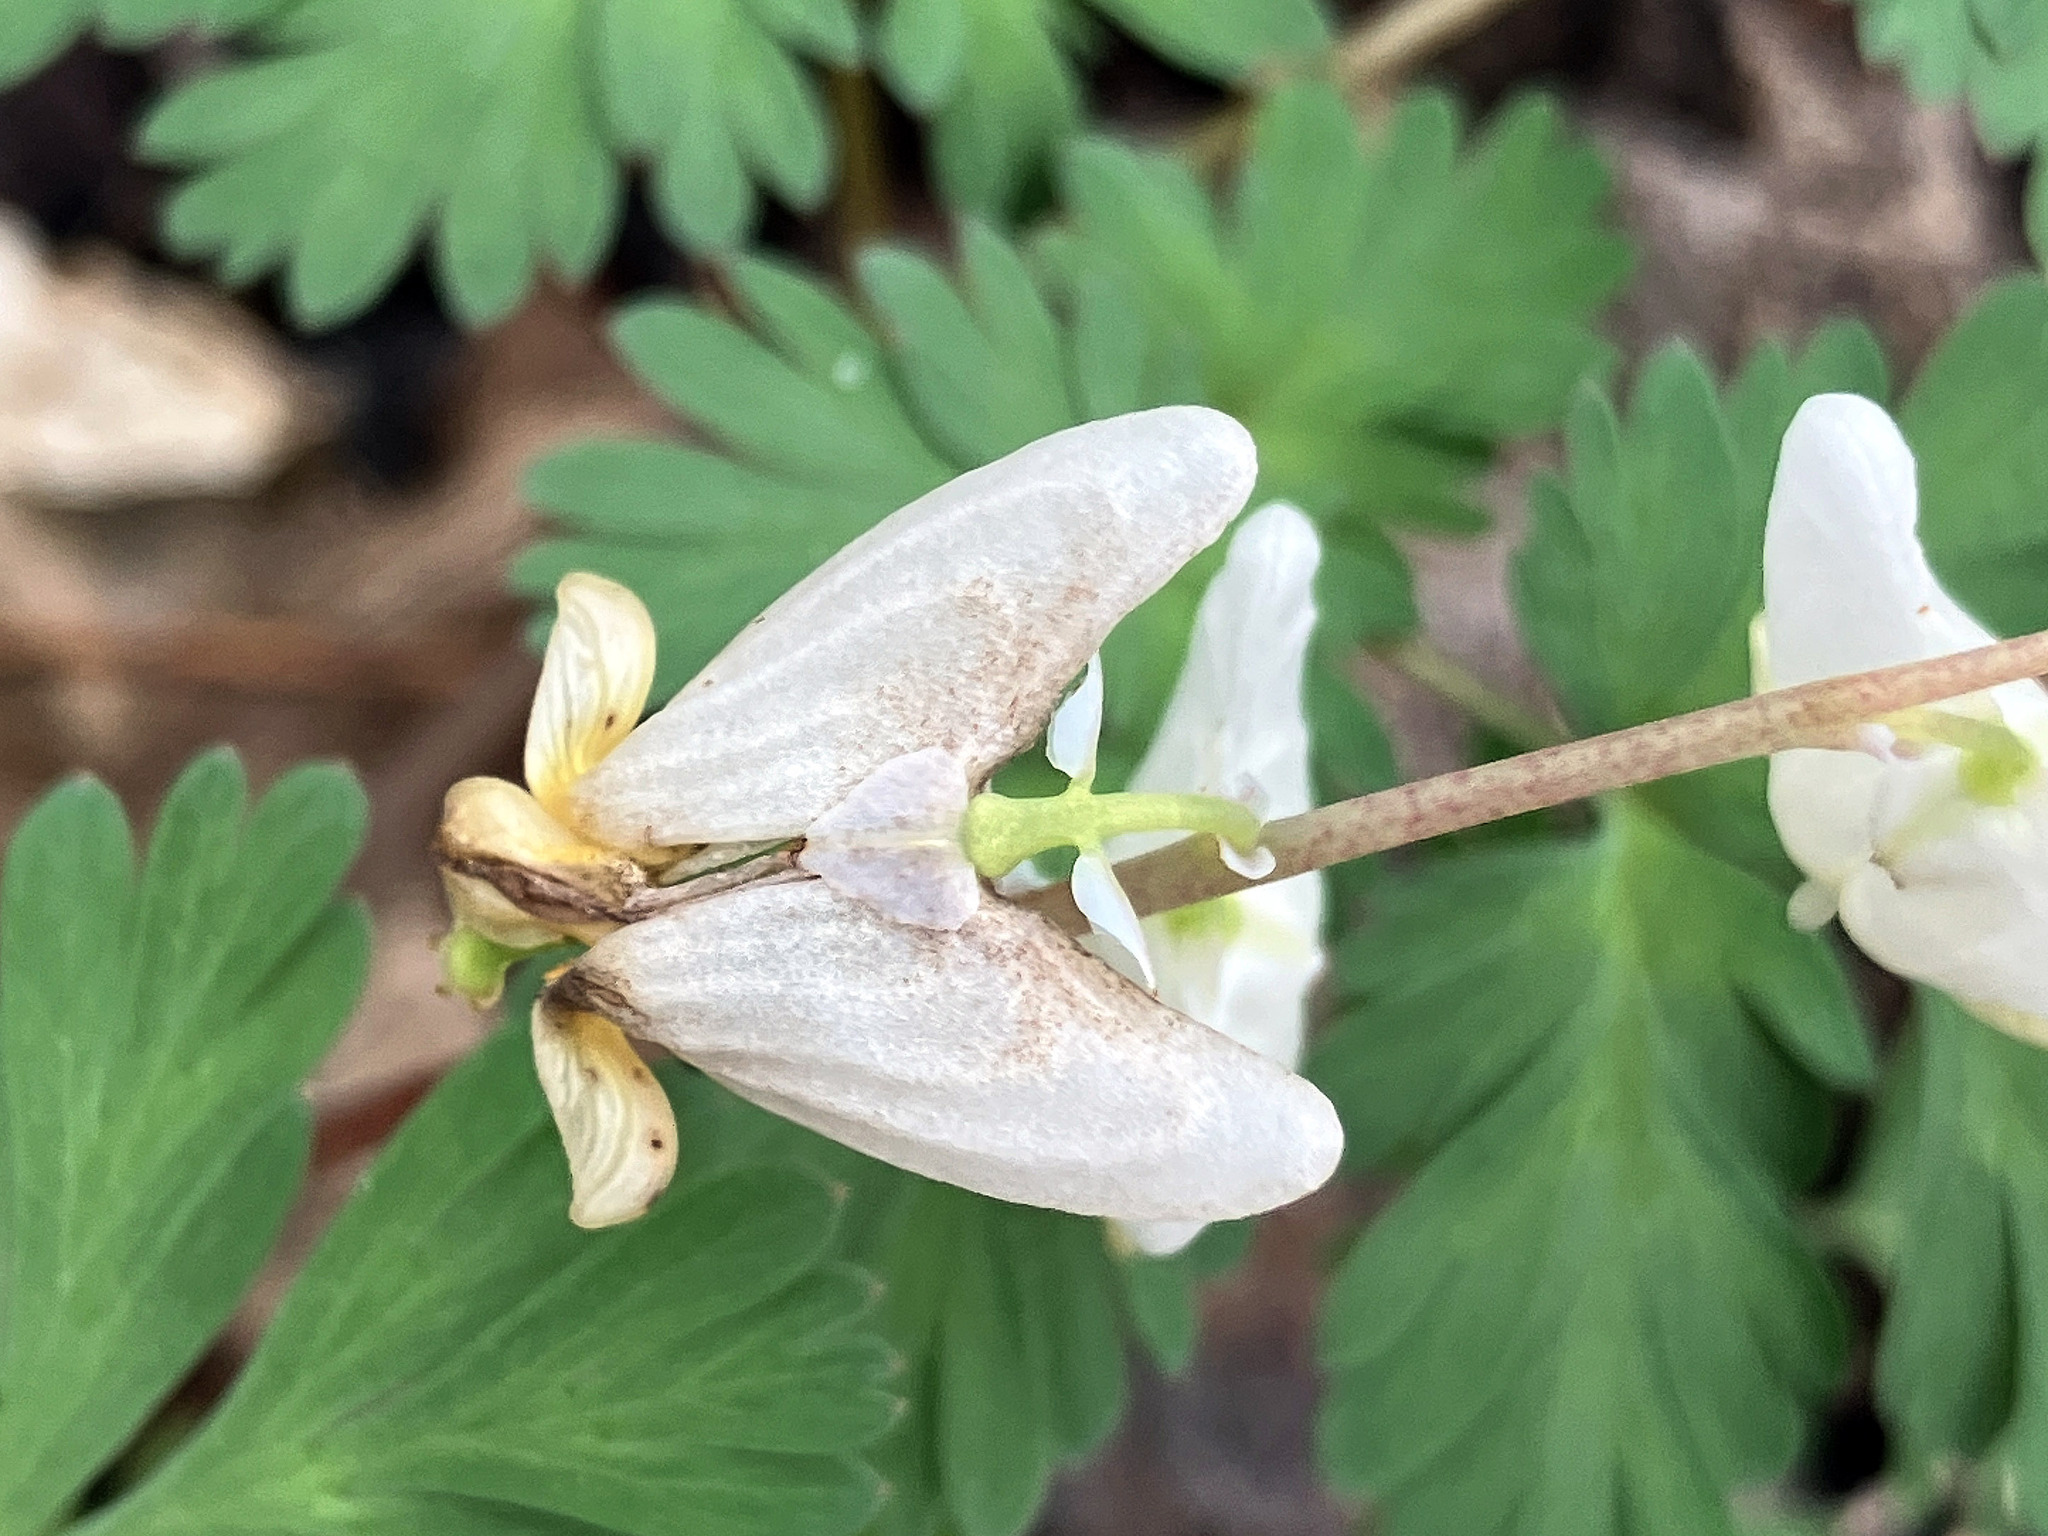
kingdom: Plantae
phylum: Tracheophyta
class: Magnoliopsida
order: Ranunculales
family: Papaveraceae
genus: Dicentra
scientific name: Dicentra cucullaria
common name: Dutchman's breeches
